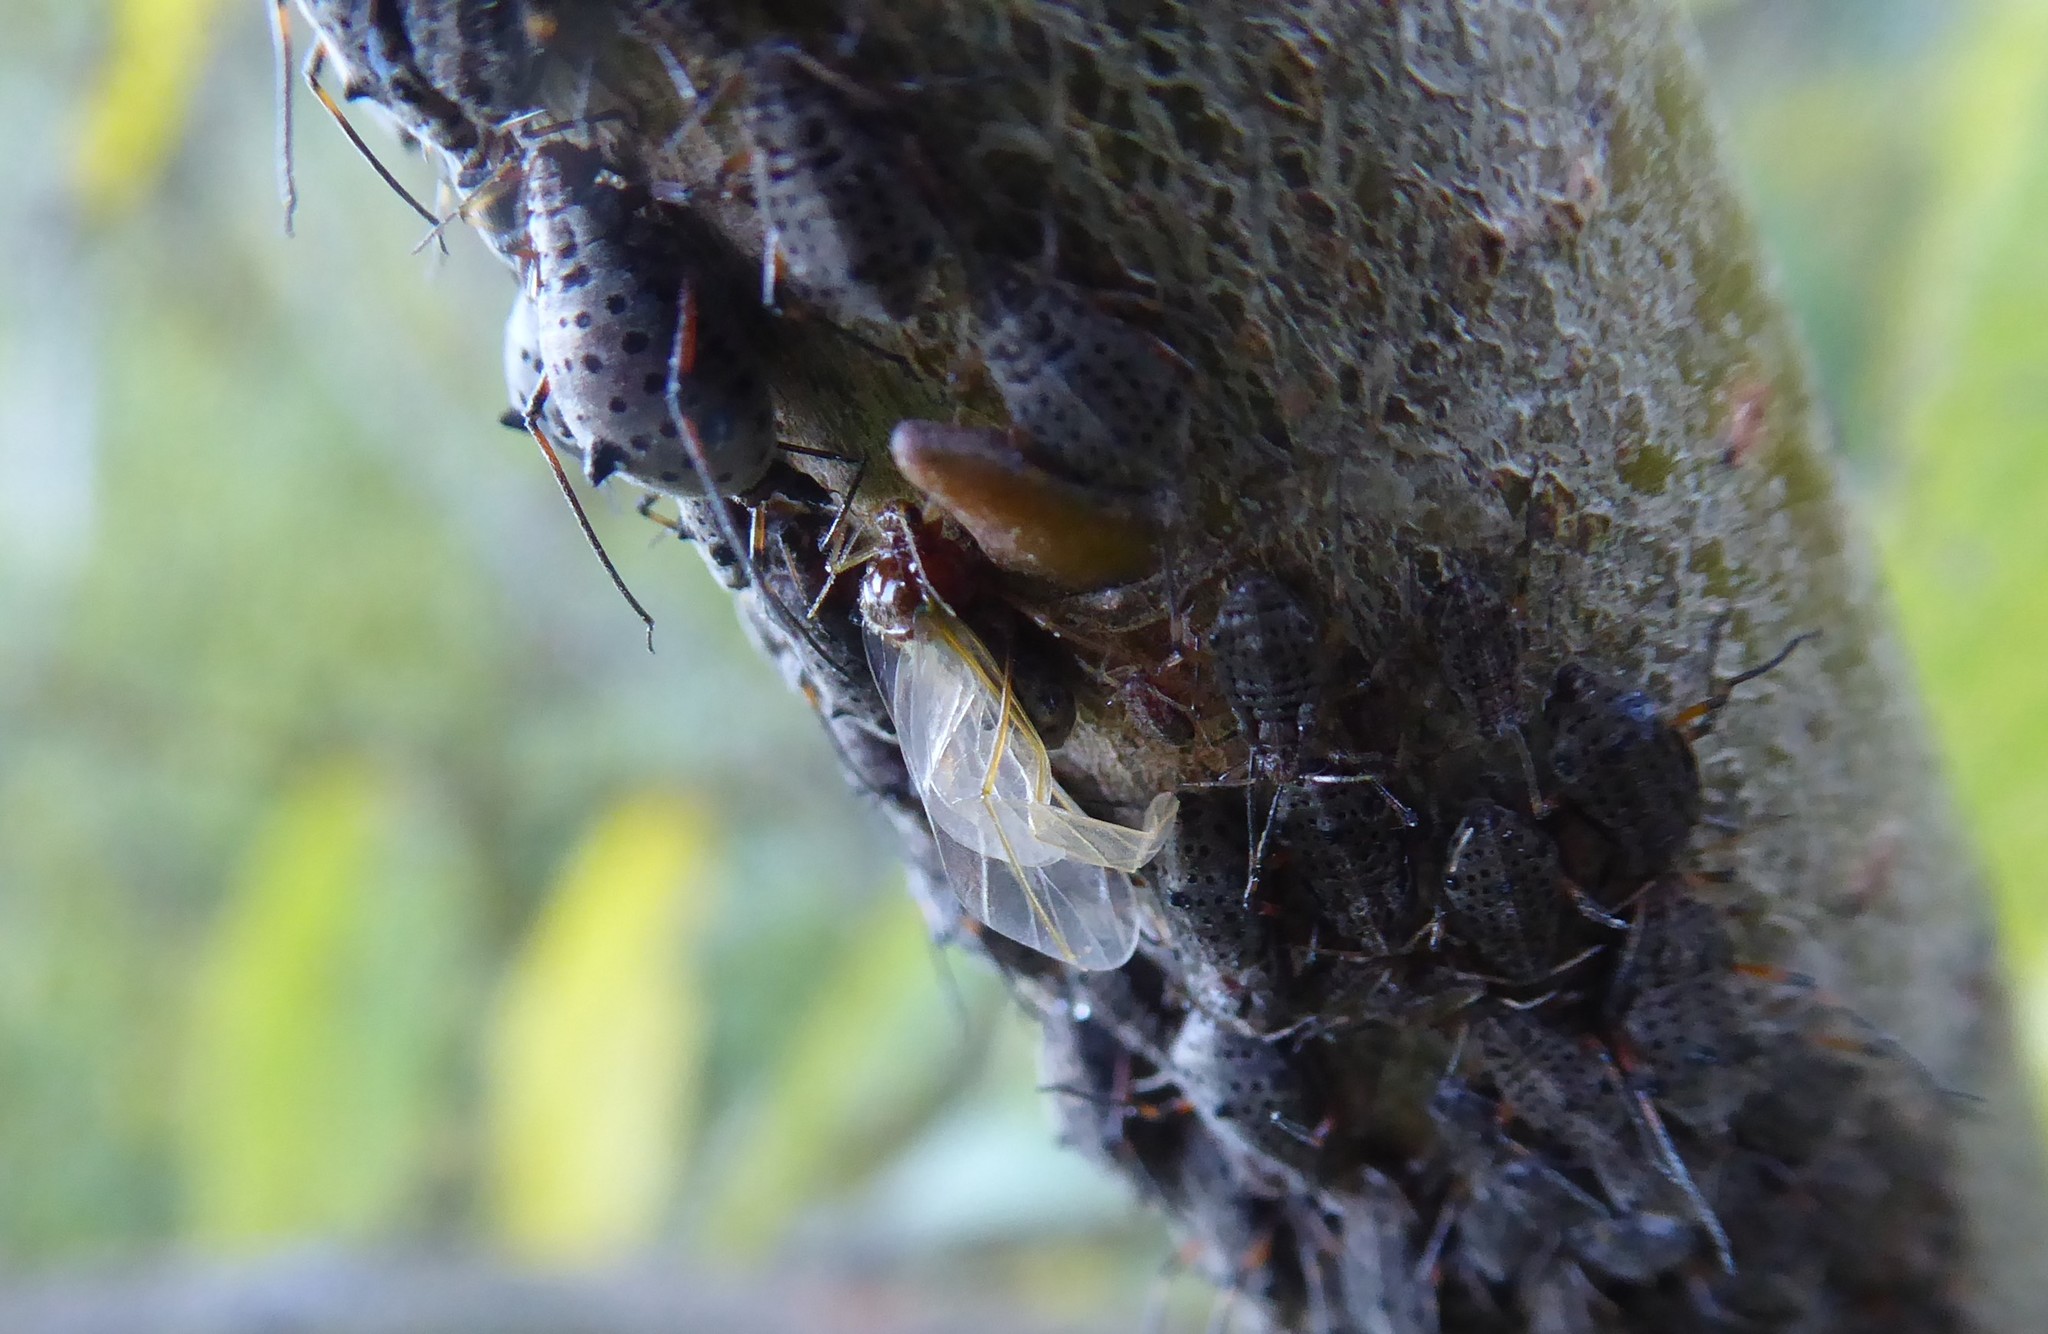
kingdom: Animalia
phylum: Arthropoda
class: Insecta
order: Hemiptera
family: Aphididae
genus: Tuberolachnus
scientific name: Tuberolachnus salignus
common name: Giant willow aphid
